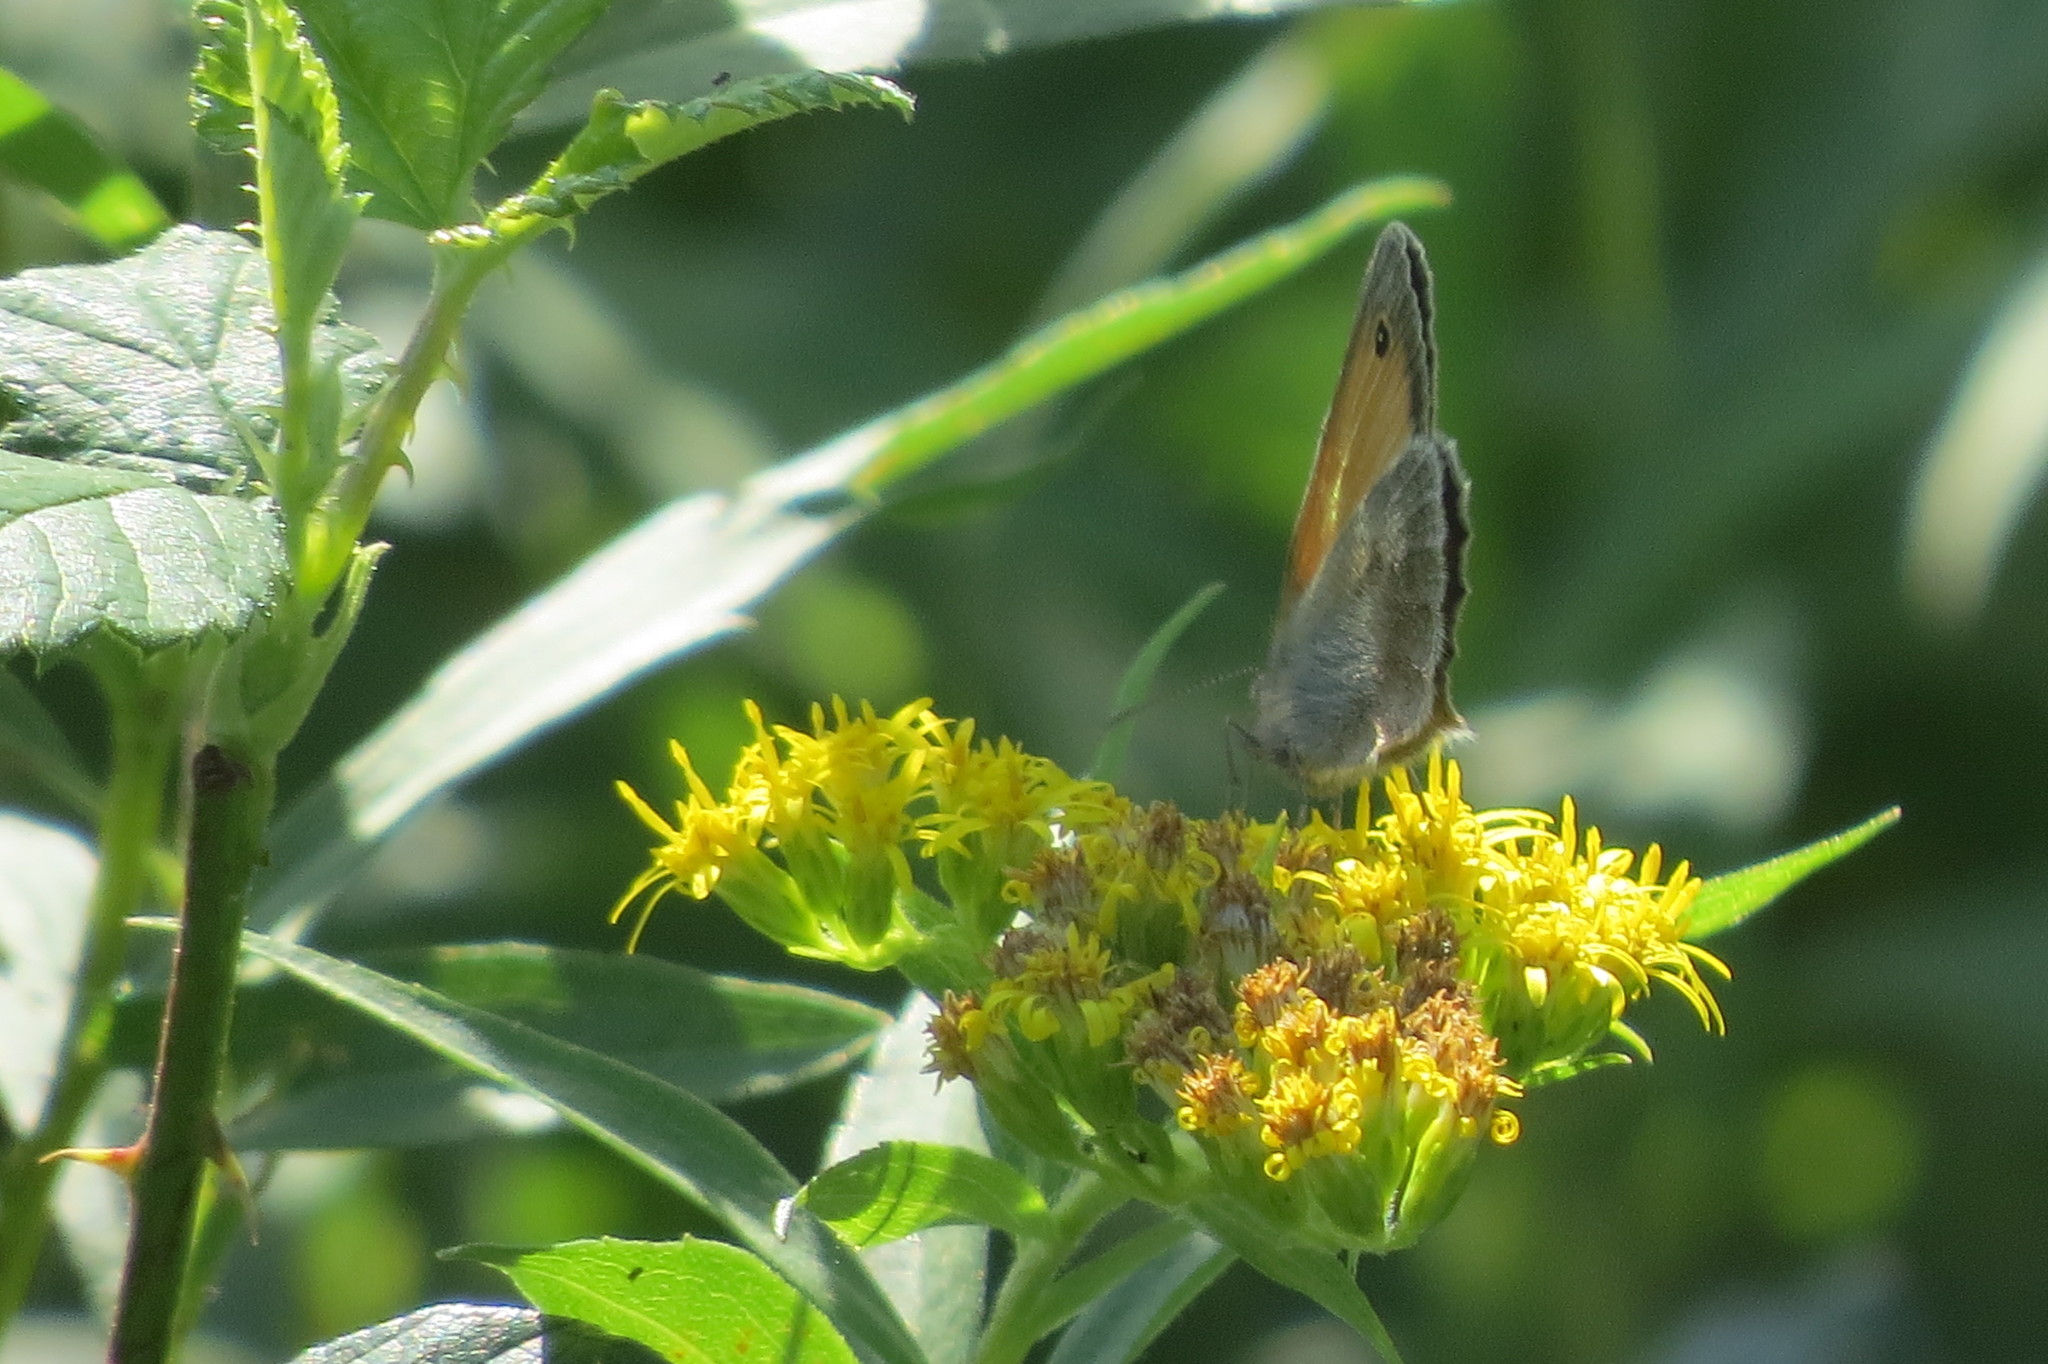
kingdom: Animalia
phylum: Arthropoda
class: Insecta
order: Lepidoptera
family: Nymphalidae
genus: Coenonympha
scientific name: Coenonympha pamphilus
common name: Small heath
